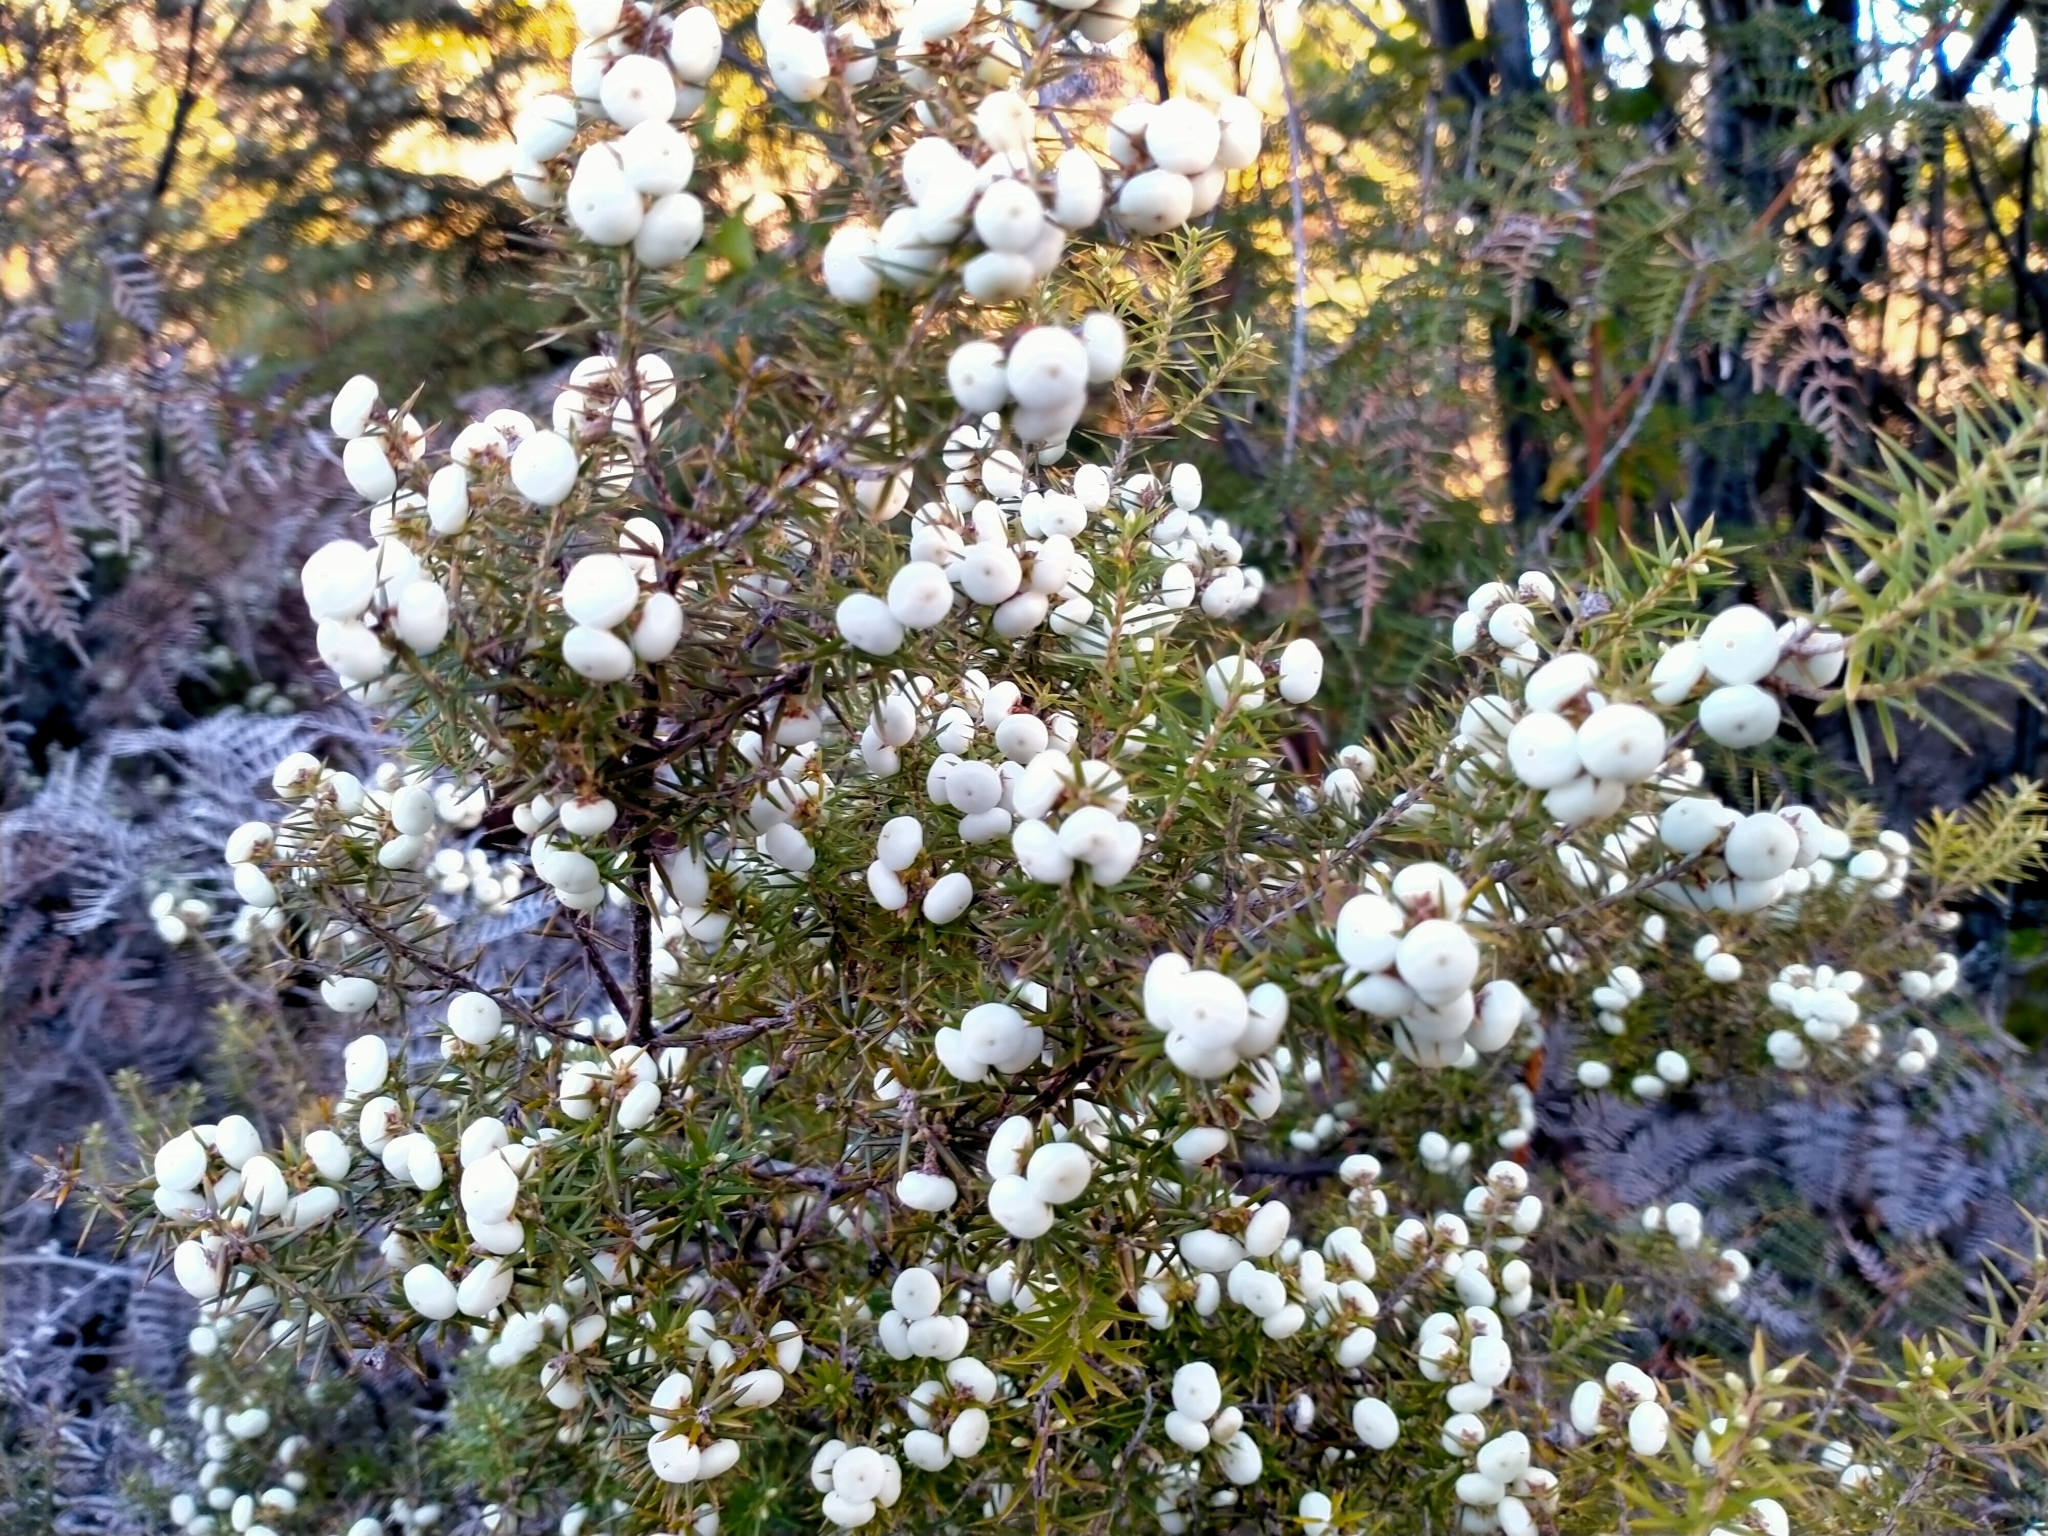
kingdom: Plantae
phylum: Tracheophyta
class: Magnoliopsida
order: Ericales
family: Ericaceae
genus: Leptecophylla
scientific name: Leptecophylla juniperina
